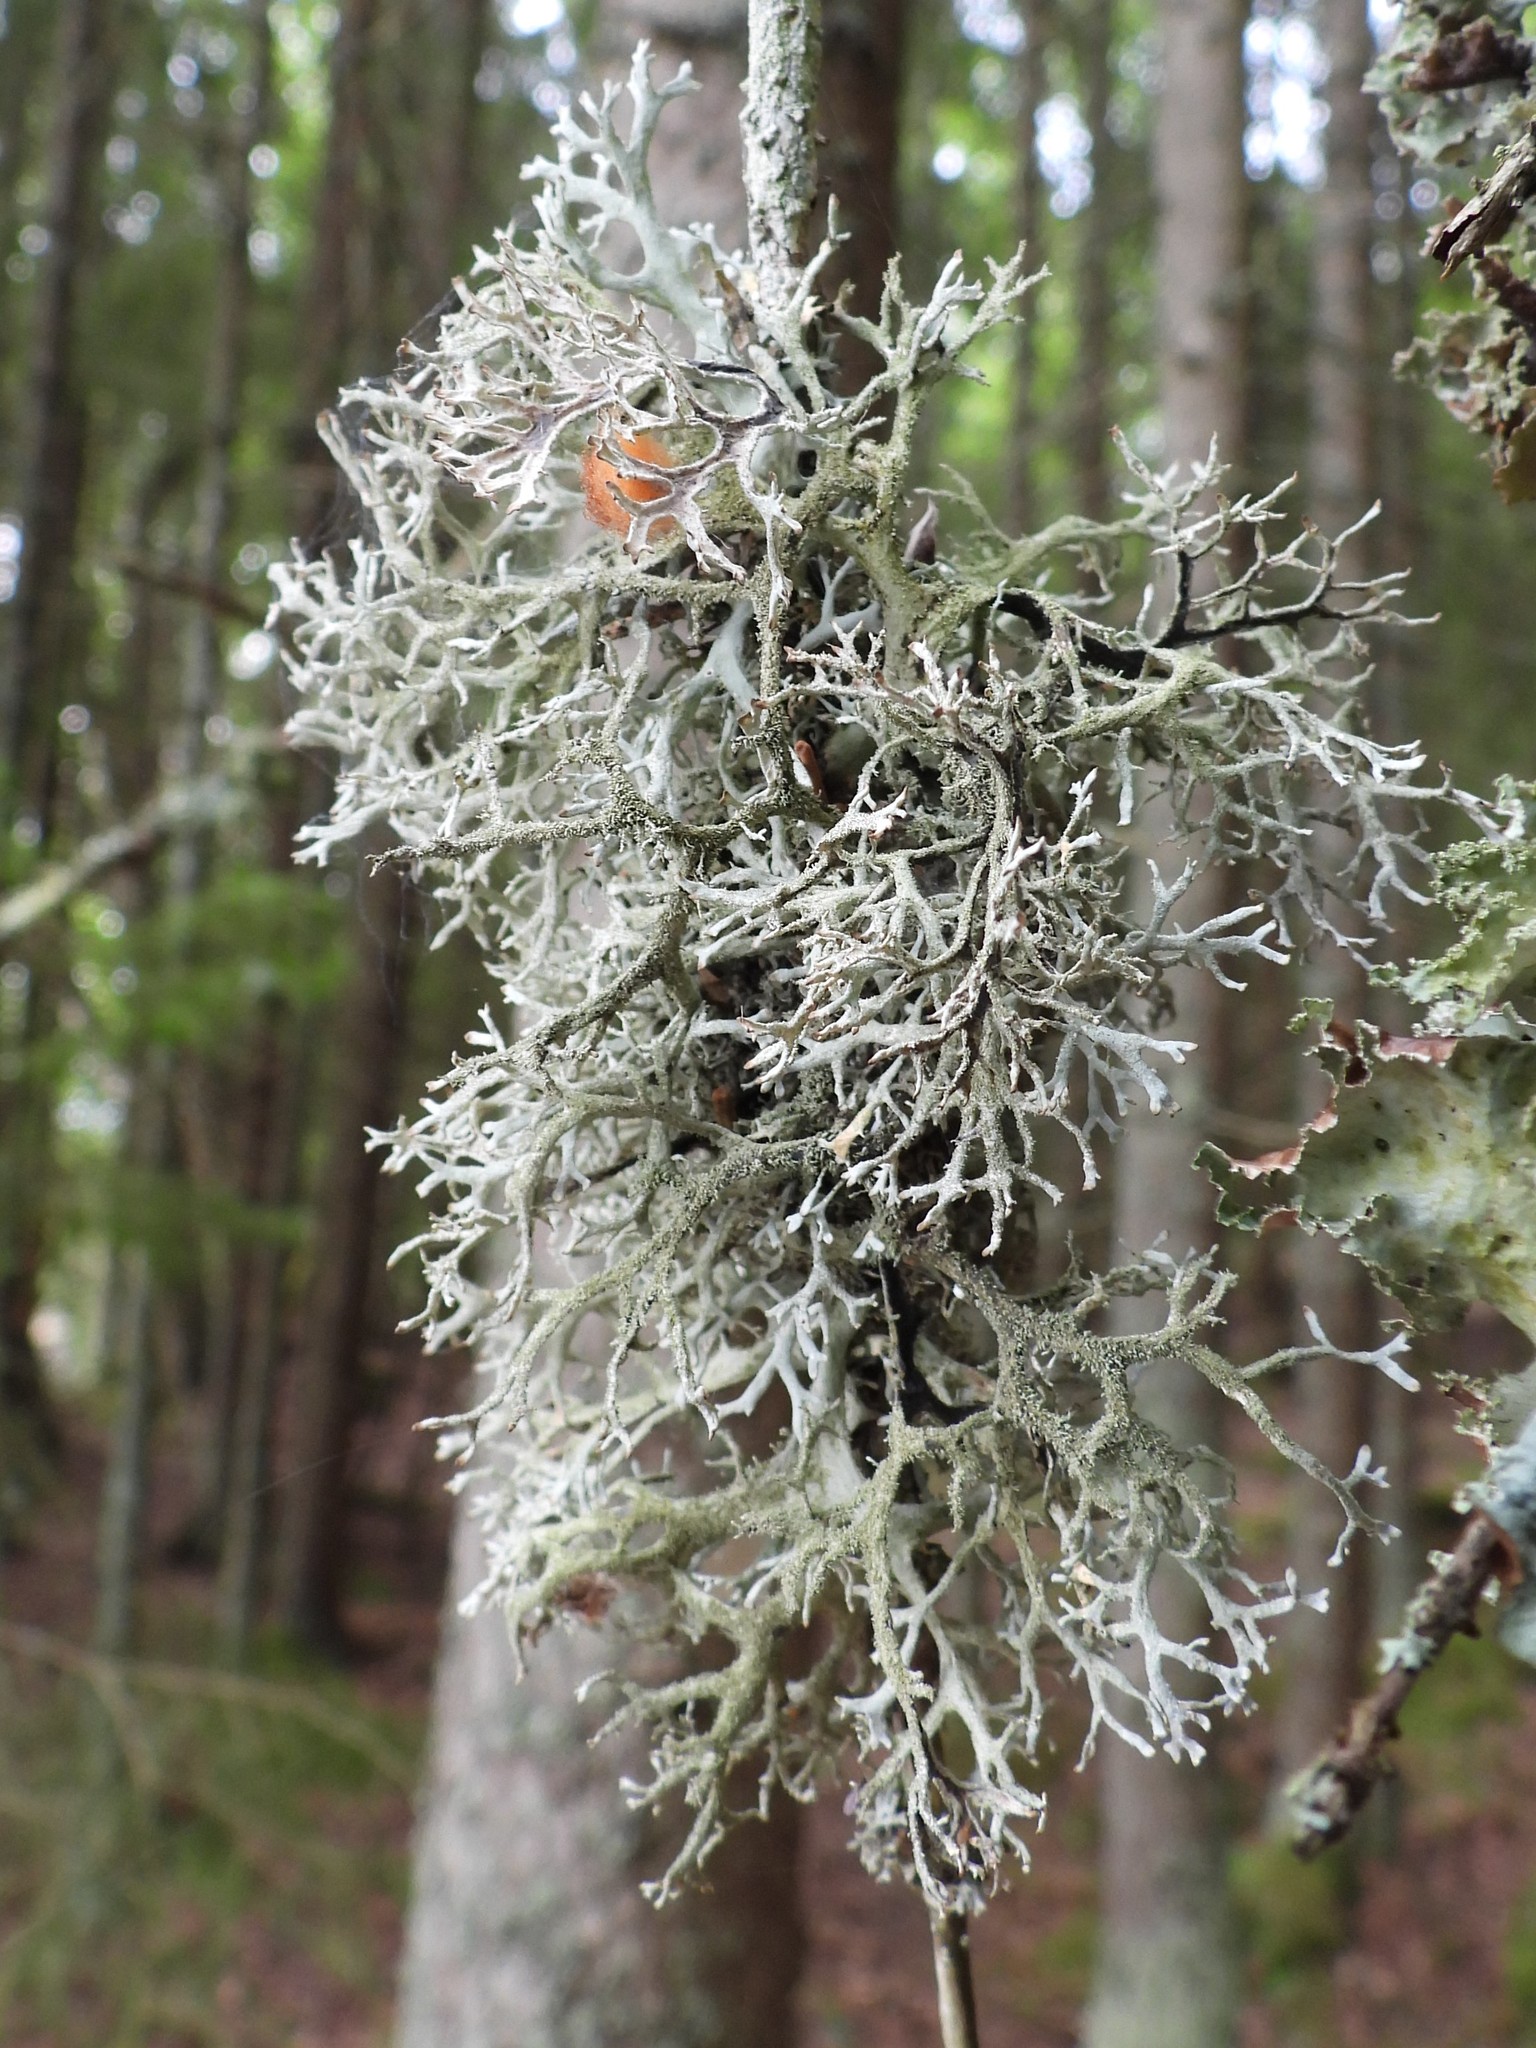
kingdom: Fungi
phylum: Ascomycota
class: Lecanoromycetes
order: Lecanorales
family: Parmeliaceae
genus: Pseudevernia
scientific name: Pseudevernia furfuracea
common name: Tree moss
